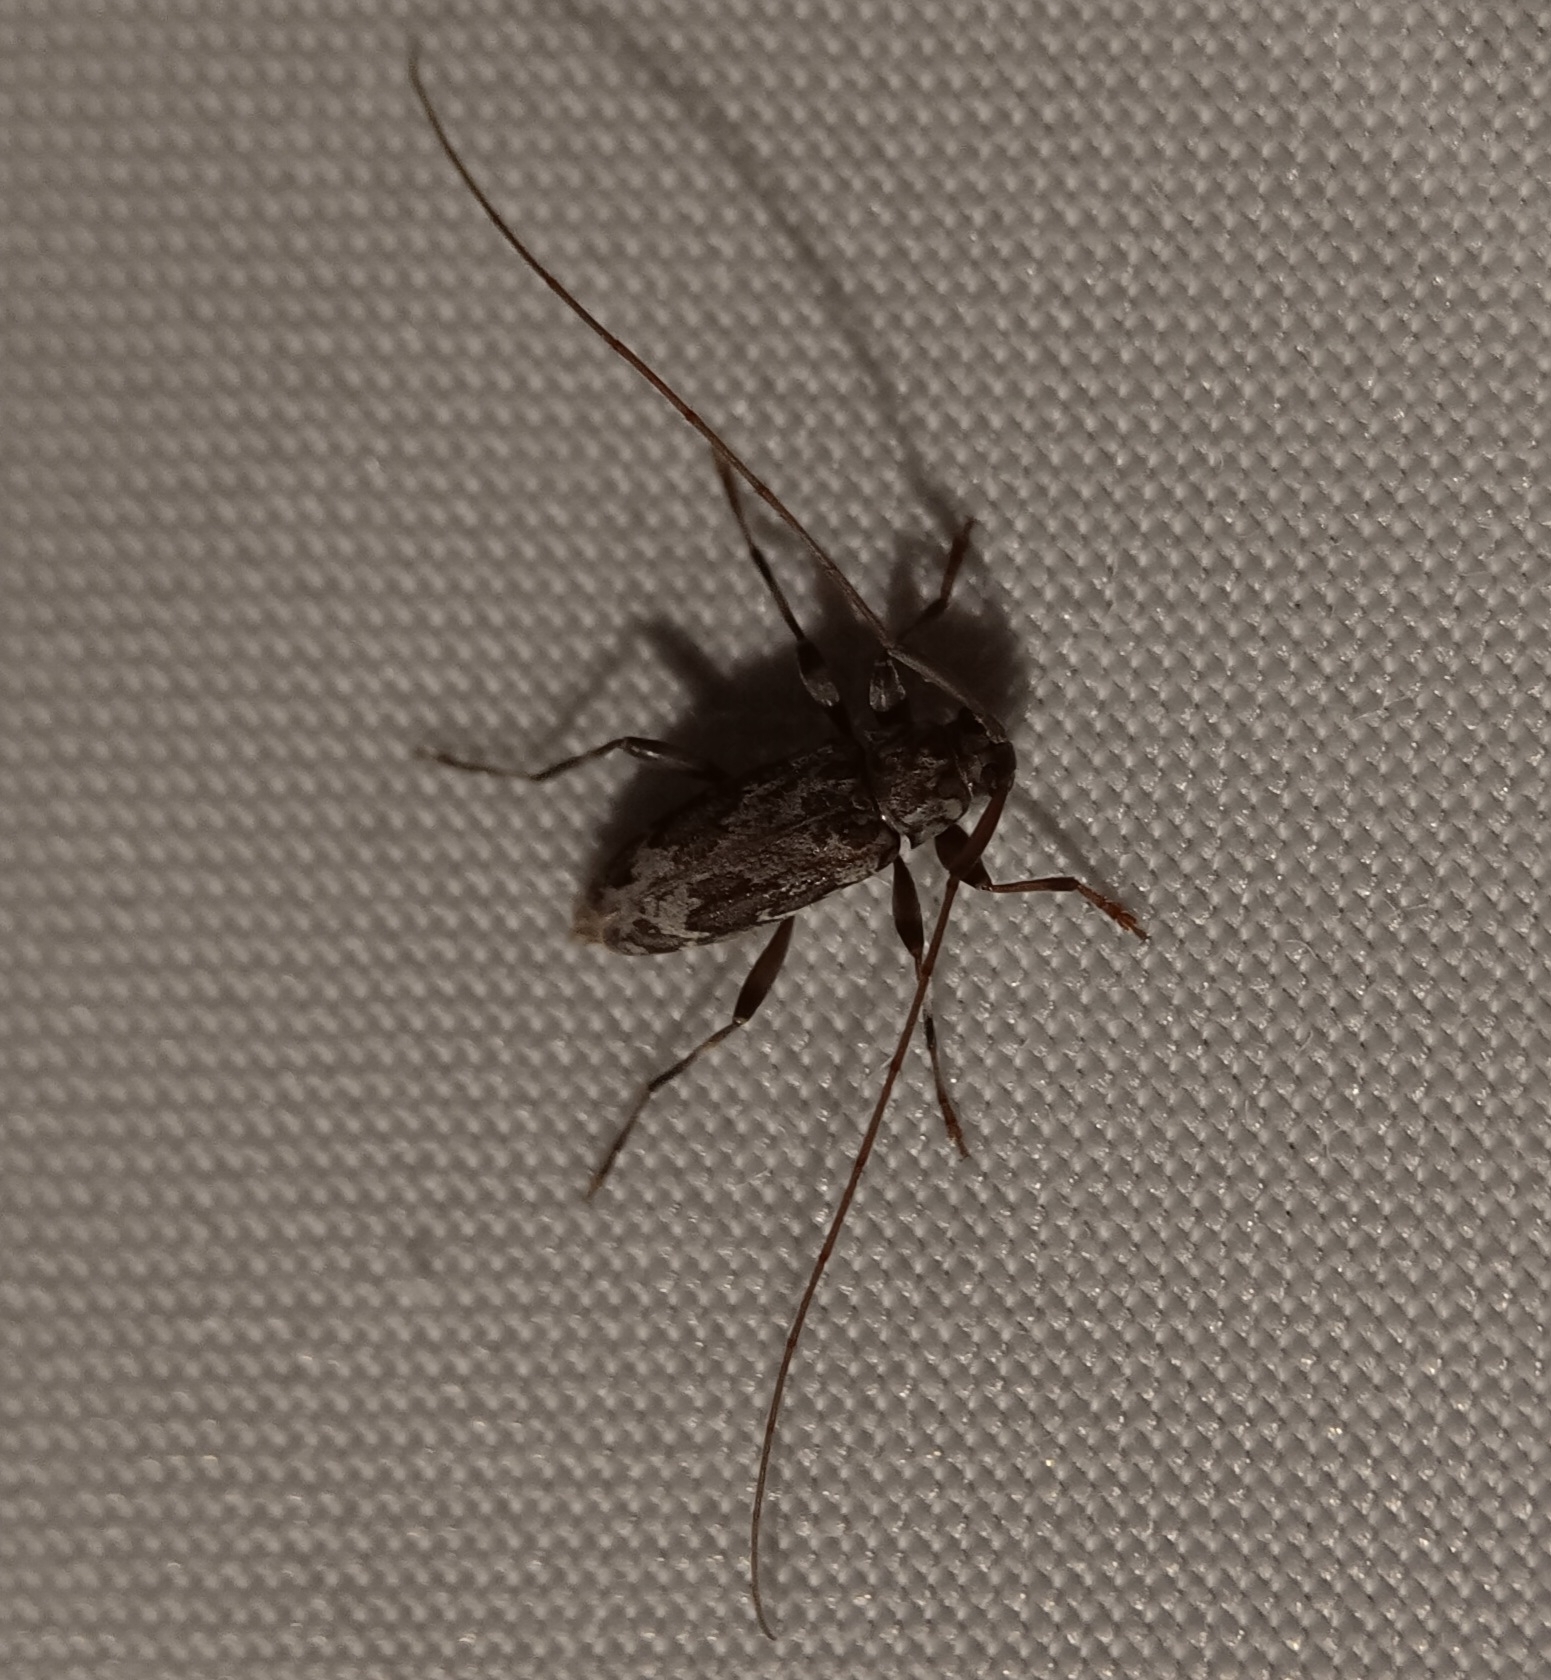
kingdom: Animalia
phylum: Arthropoda
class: Insecta
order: Coleoptera
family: Cerambycidae
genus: Lepturges
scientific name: Lepturges confluens
